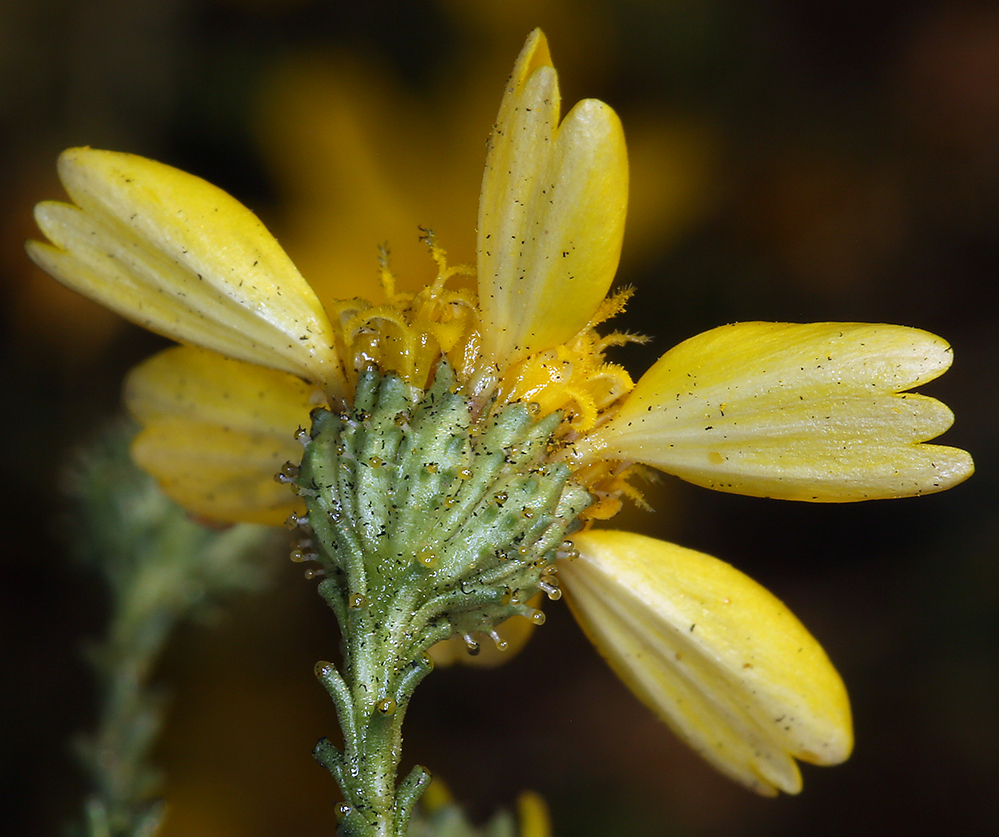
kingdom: Plantae
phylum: Tracheophyta
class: Magnoliopsida
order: Asterales
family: Asteraceae
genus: Holocarpha
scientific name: Holocarpha obconica
